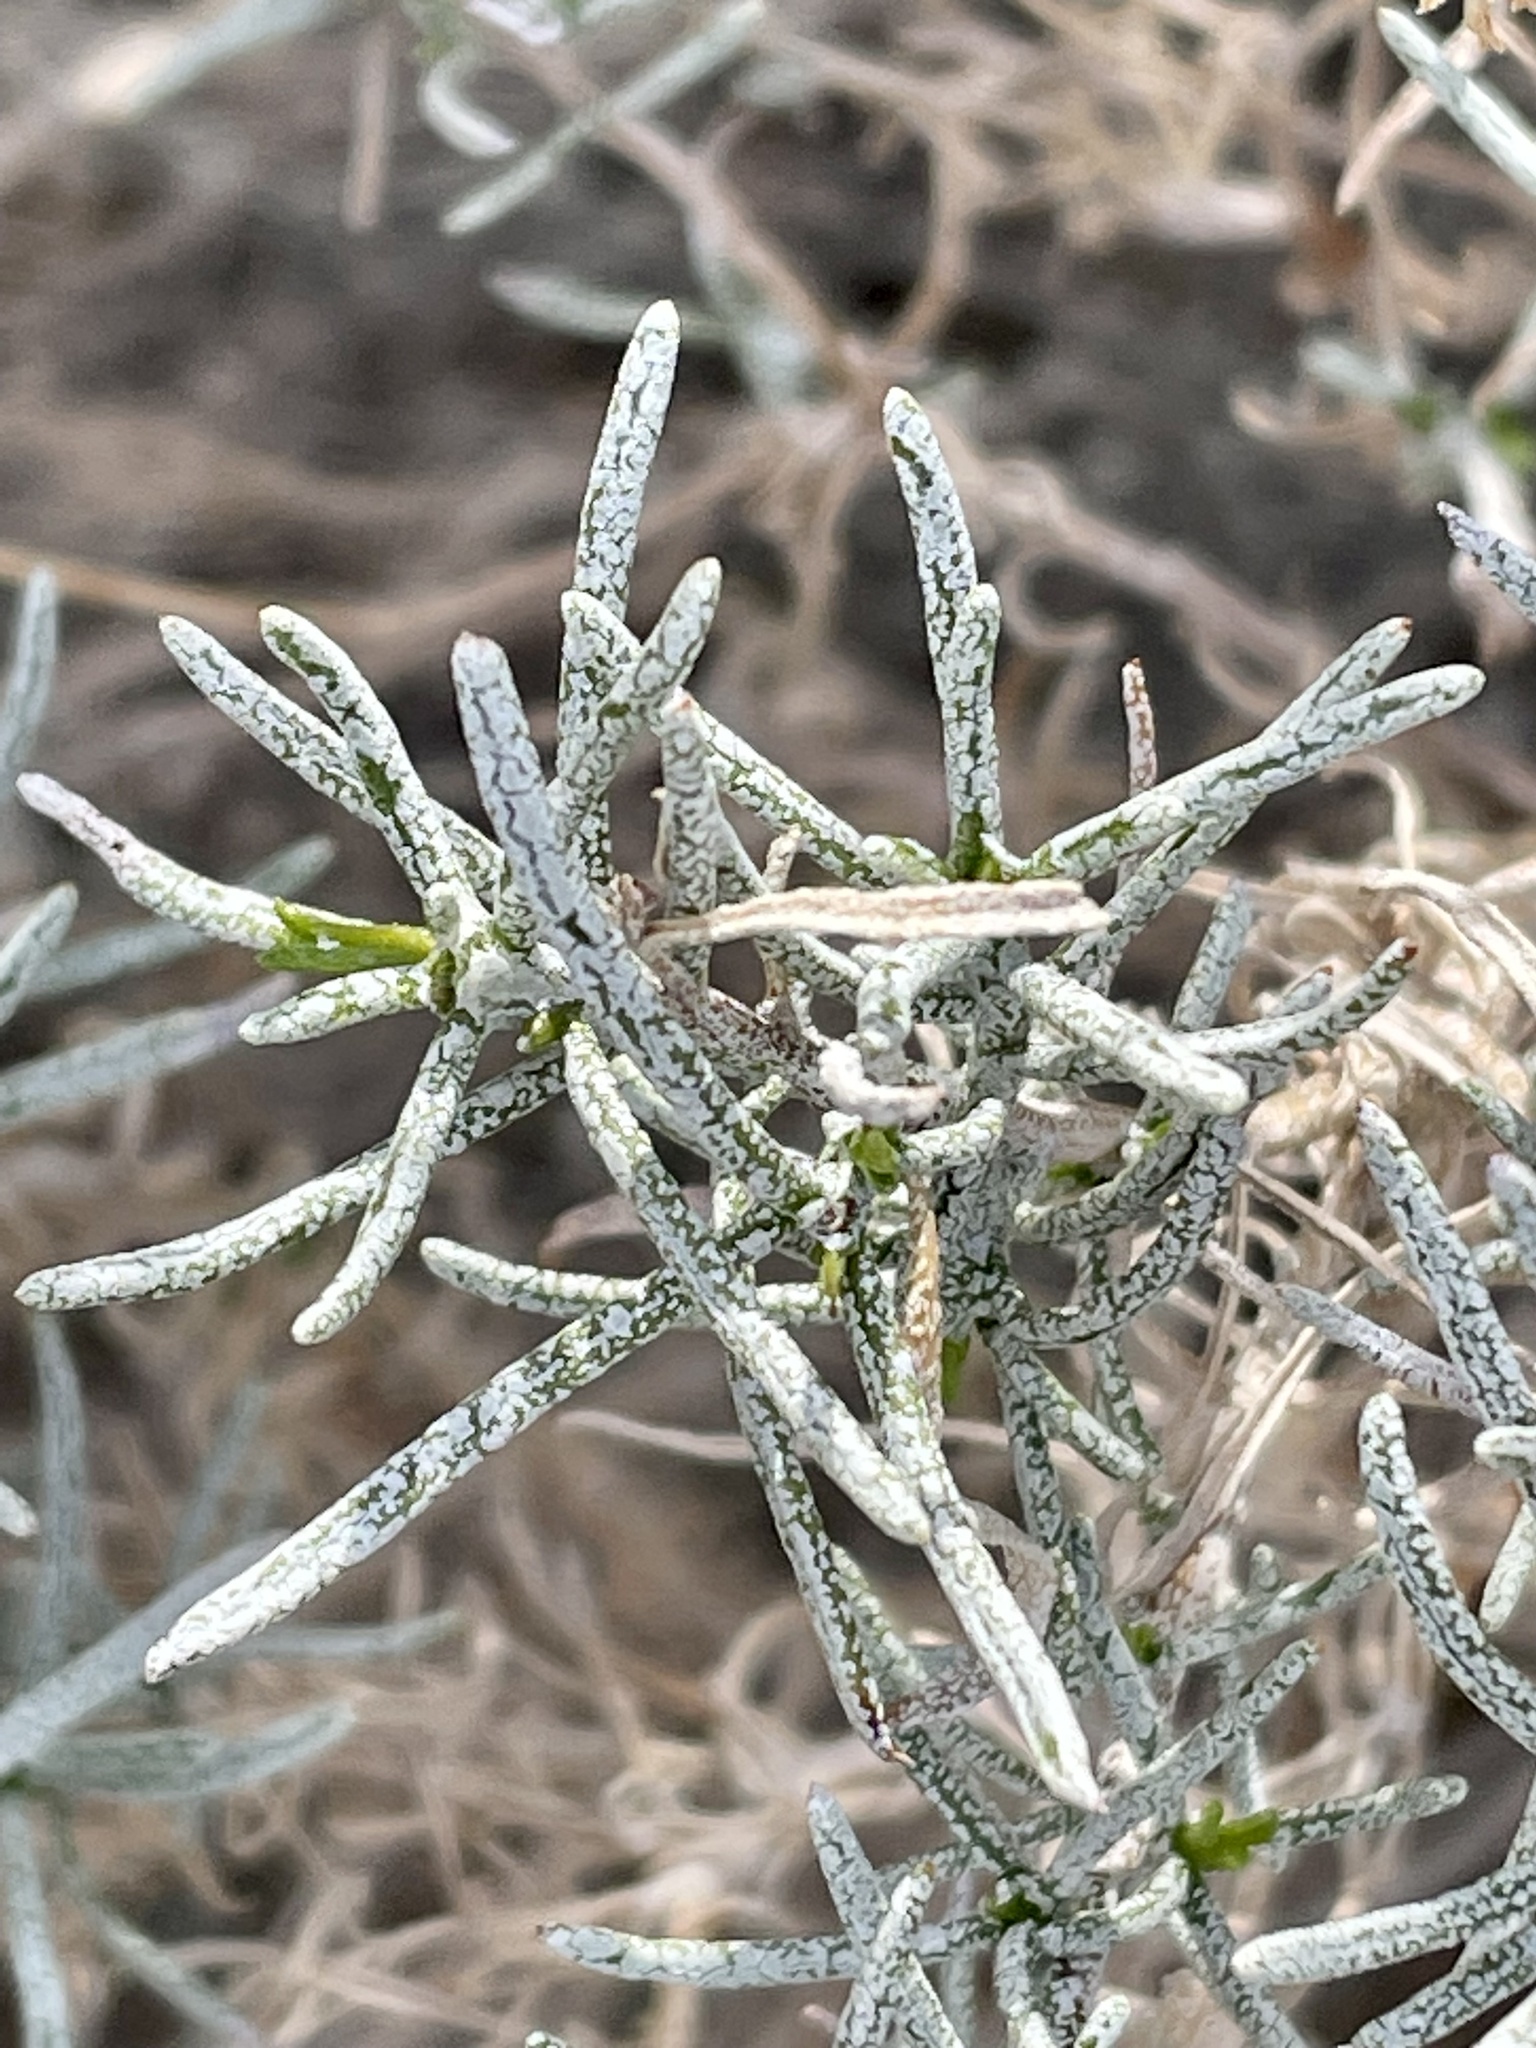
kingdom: Plantae
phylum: Tracheophyta
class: Magnoliopsida
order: Asterales
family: Asteraceae
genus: Ericameria
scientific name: Ericameria linearifolia
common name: Interior goldenbush
